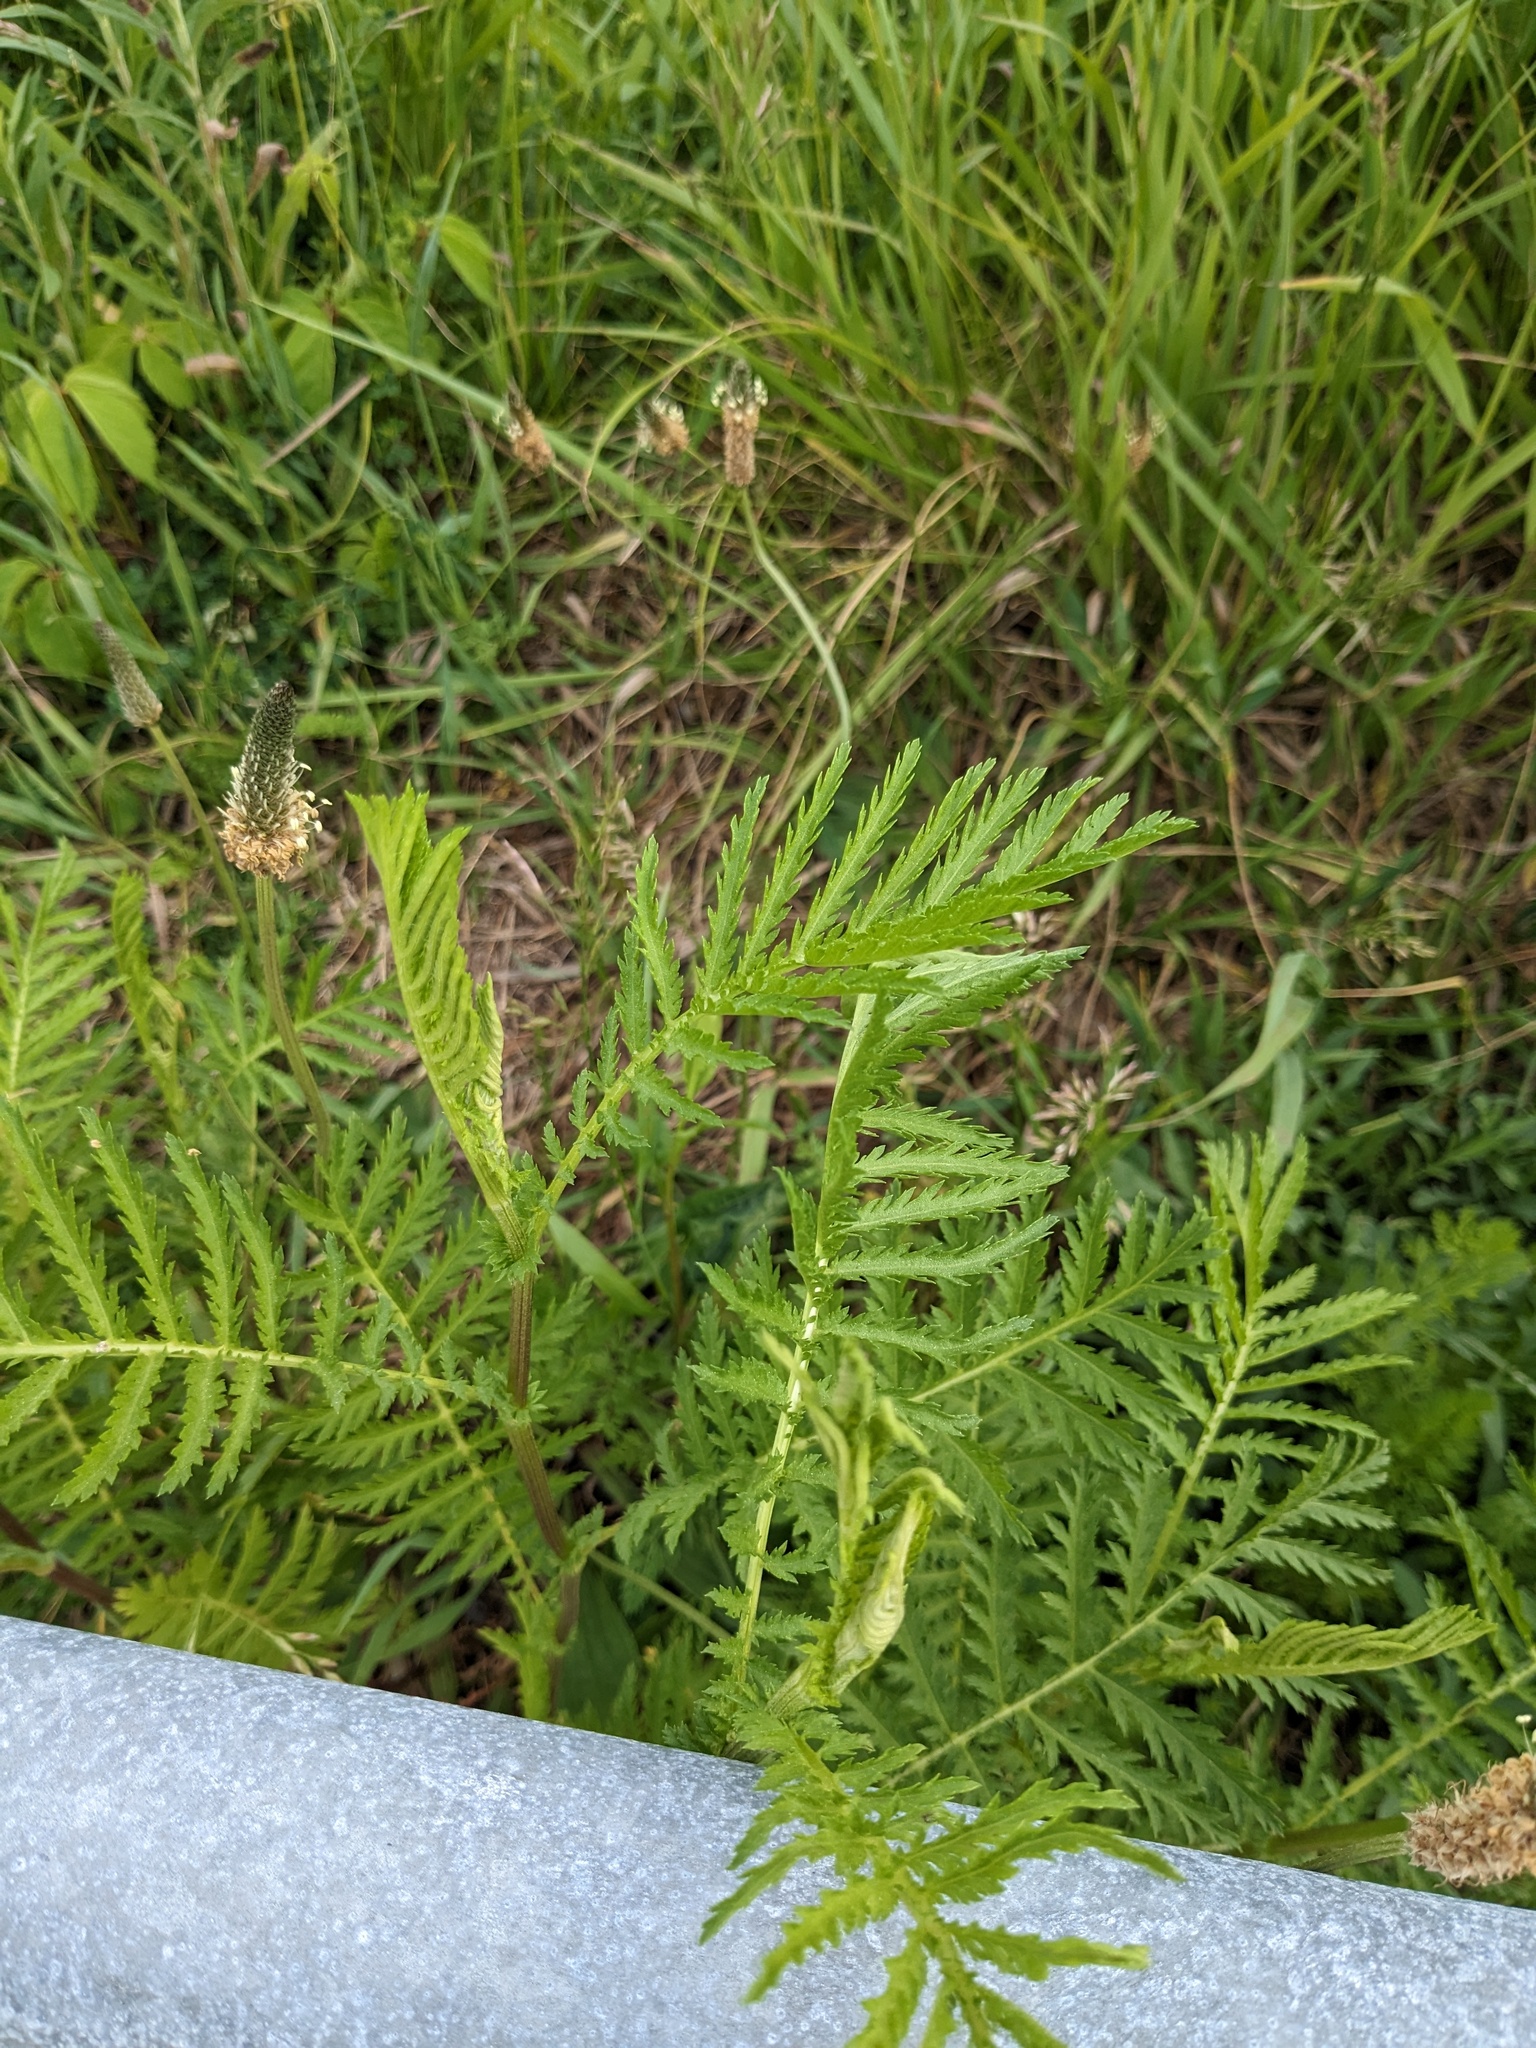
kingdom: Plantae
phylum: Tracheophyta
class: Magnoliopsida
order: Asterales
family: Asteraceae
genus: Tanacetum
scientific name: Tanacetum vulgare
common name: Common tansy
